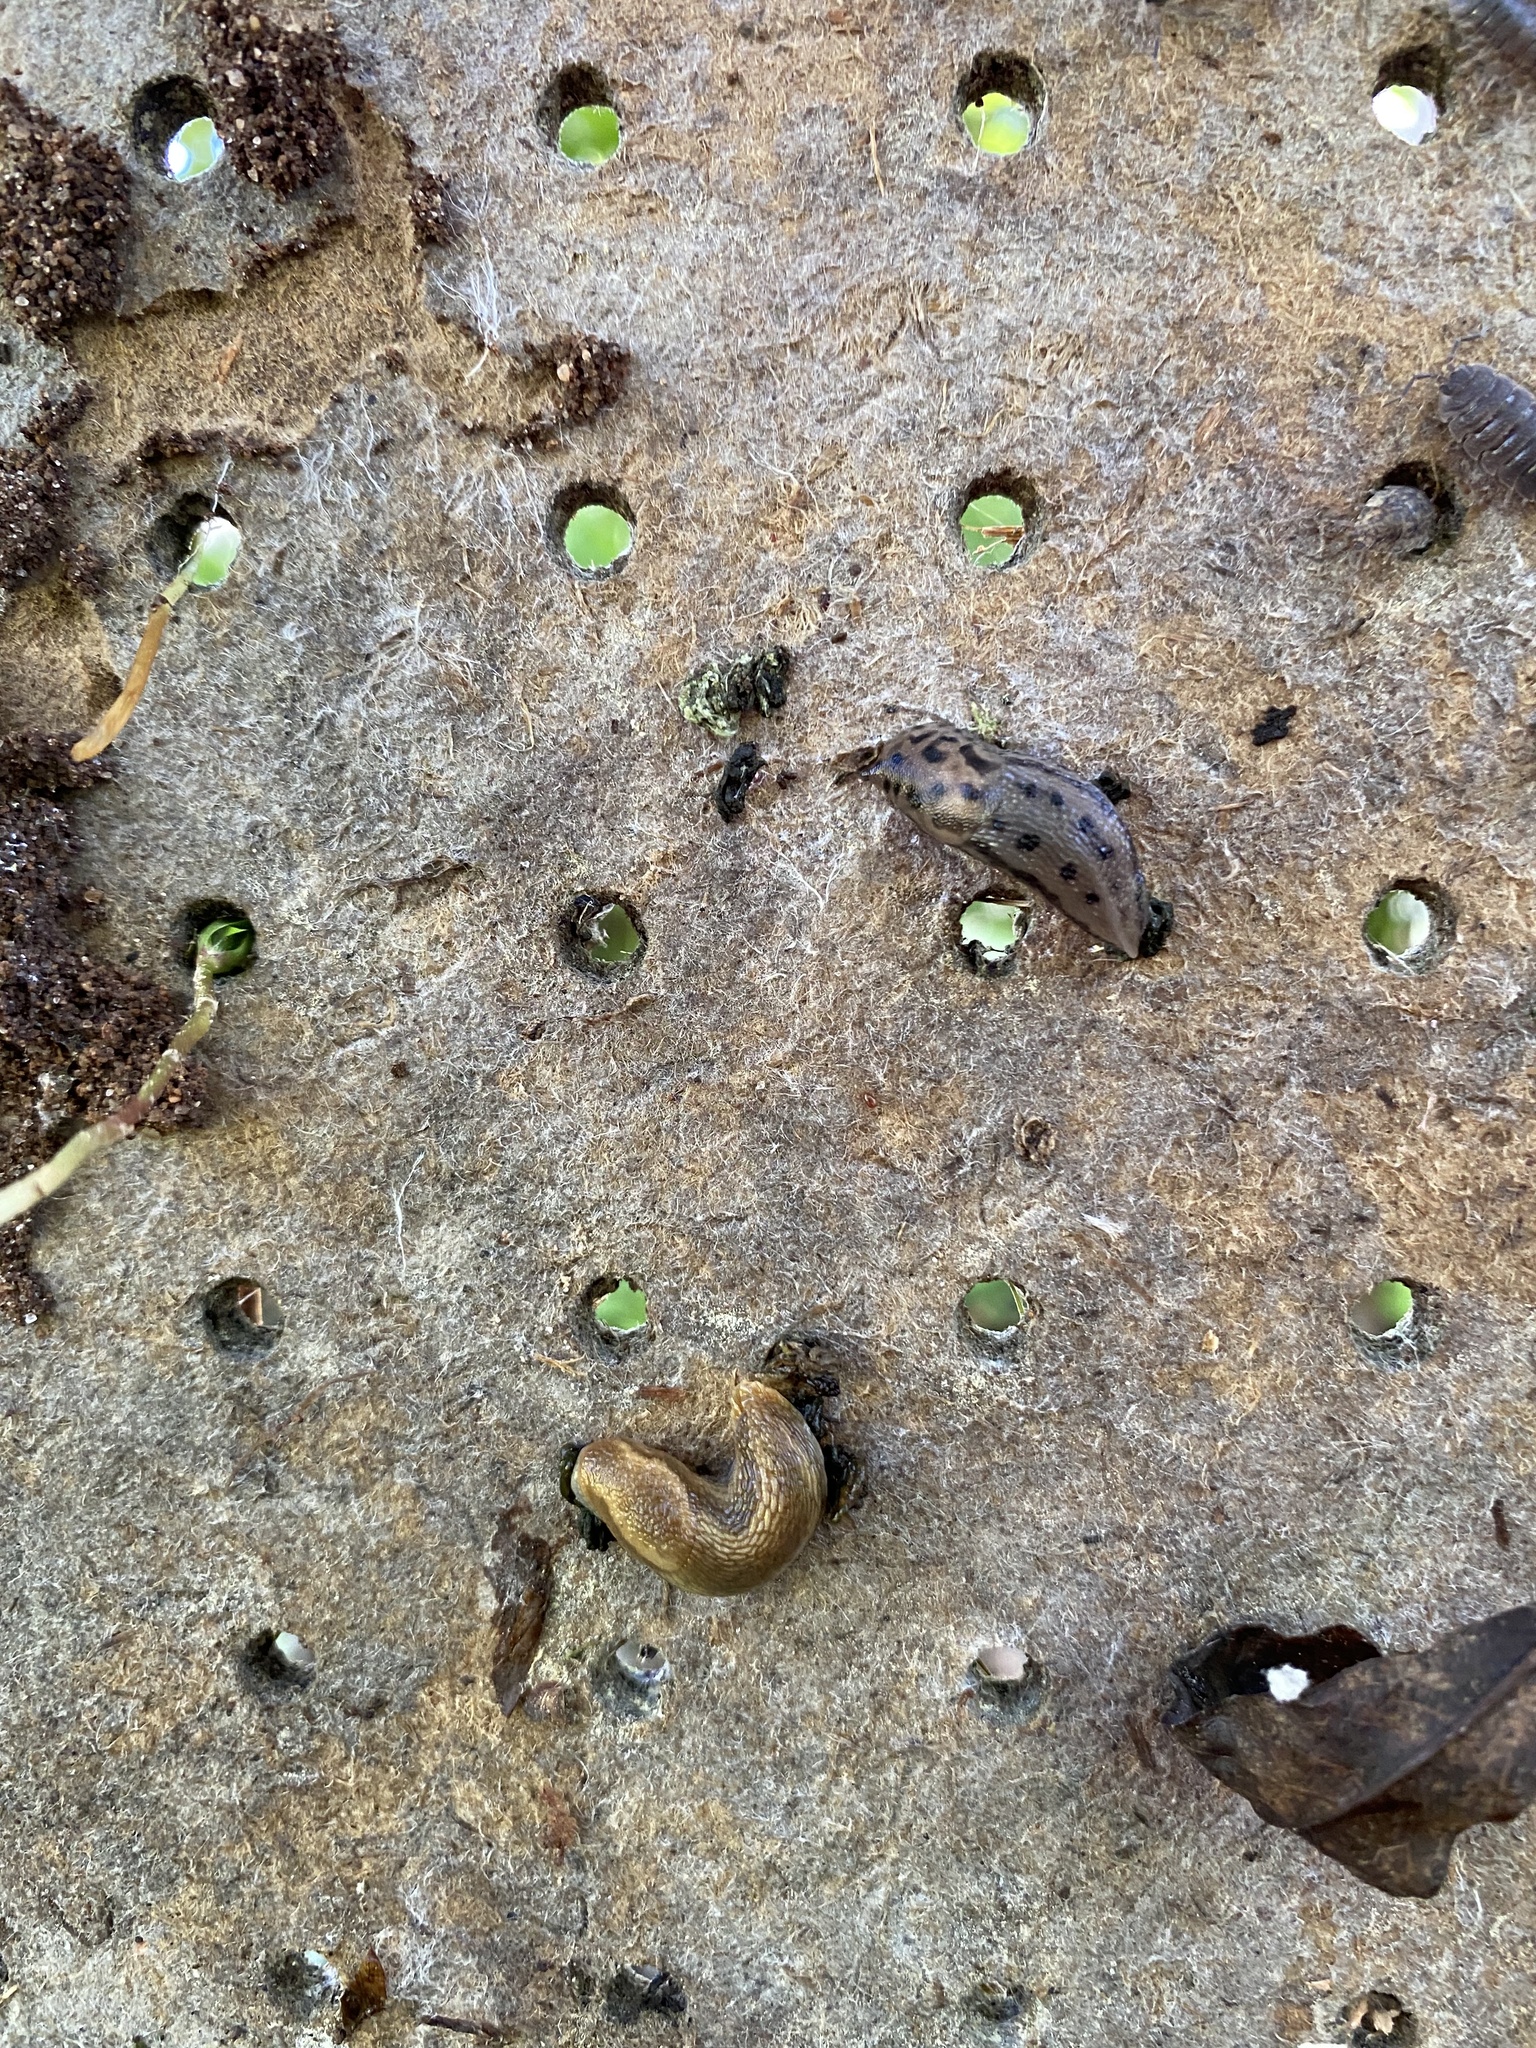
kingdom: Animalia
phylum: Mollusca
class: Gastropoda
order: Stylommatophora
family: Limacidae
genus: Limax
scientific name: Limax maximus
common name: Great grey slug
